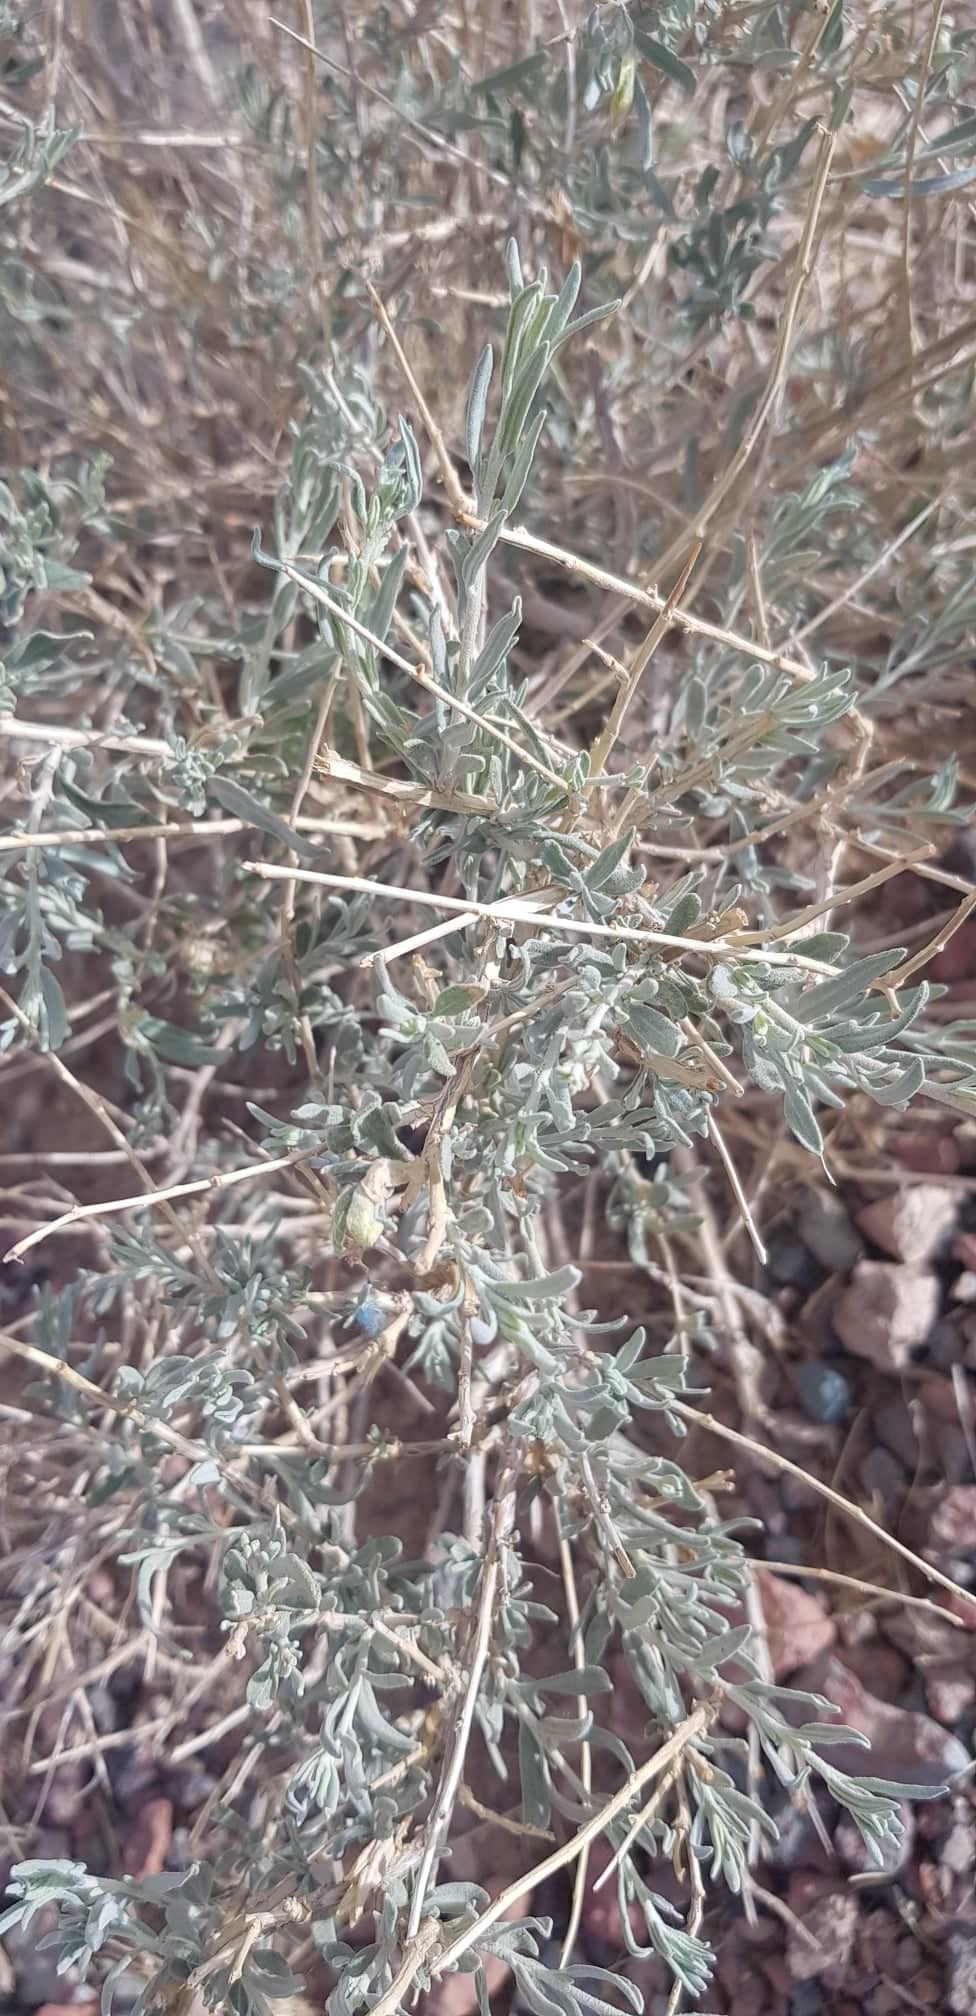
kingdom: Plantae
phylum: Tracheophyta
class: Magnoliopsida
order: Caryophyllales
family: Amaranthaceae
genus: Krascheninnikovia
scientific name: Krascheninnikovia ceratoides
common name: Pamirian winterfat
